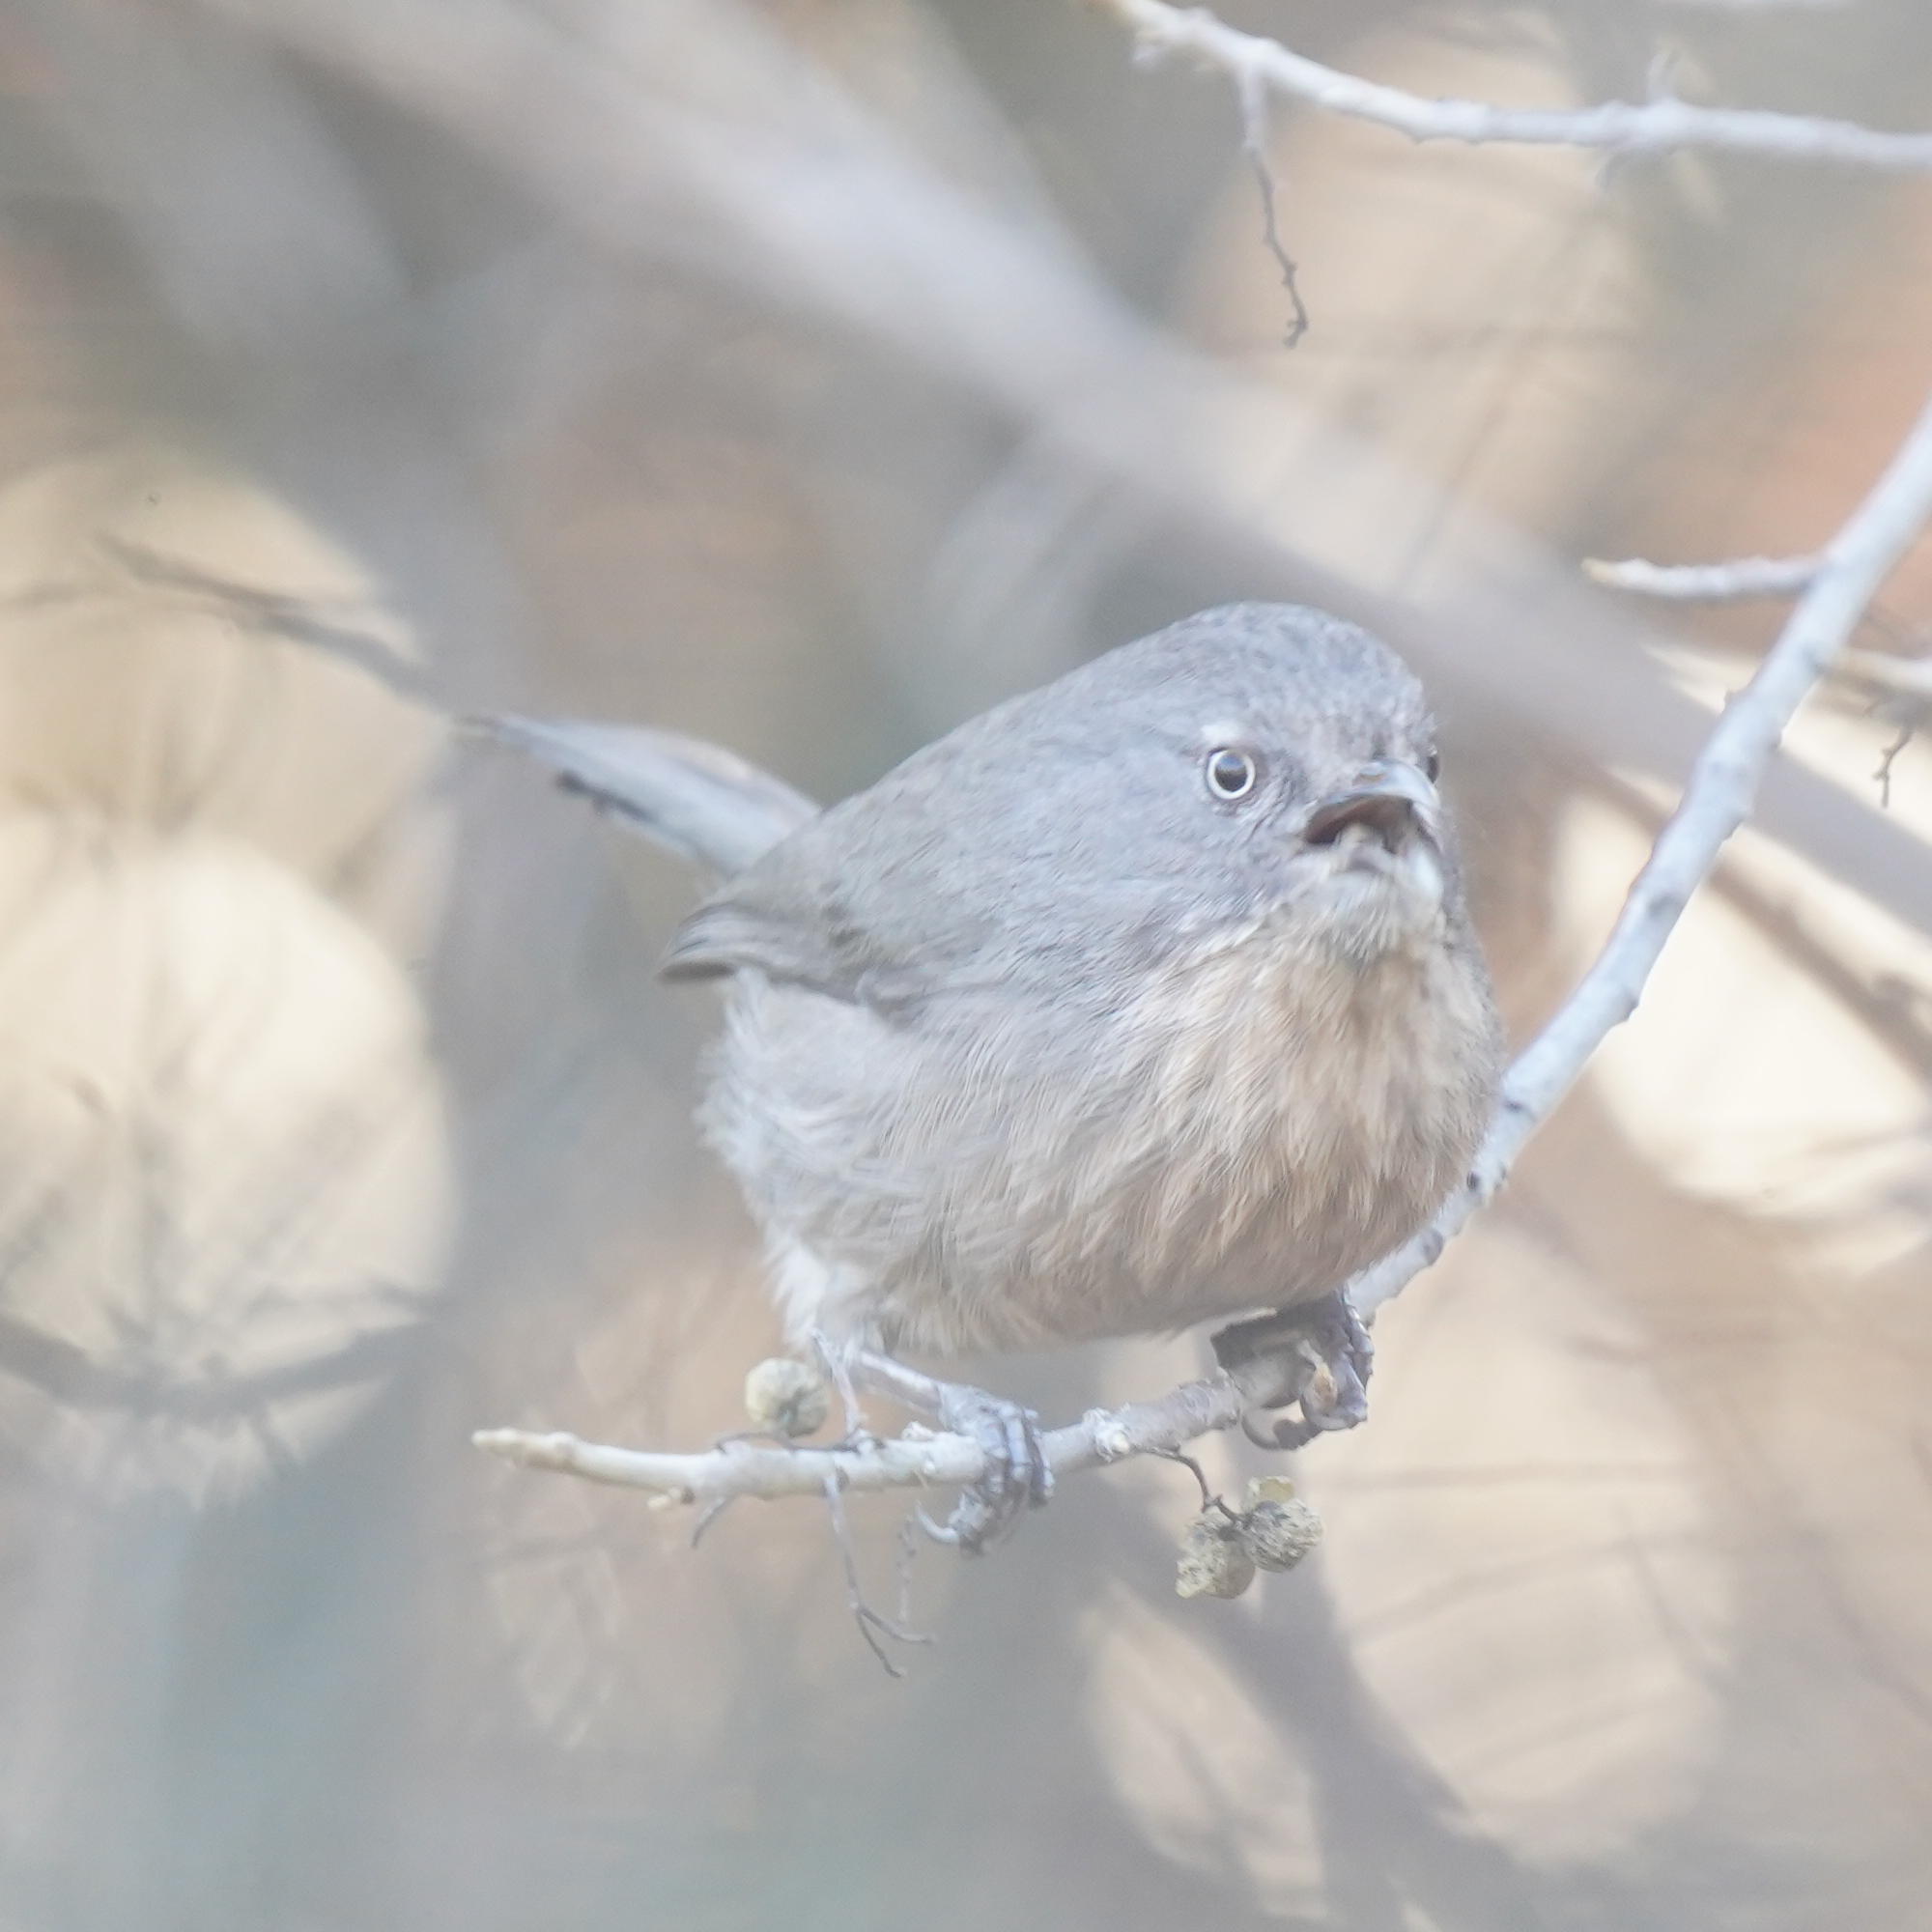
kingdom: Animalia
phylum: Chordata
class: Aves
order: Passeriformes
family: Sylviidae
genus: Chamaea
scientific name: Chamaea fasciata
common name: Wrentit
